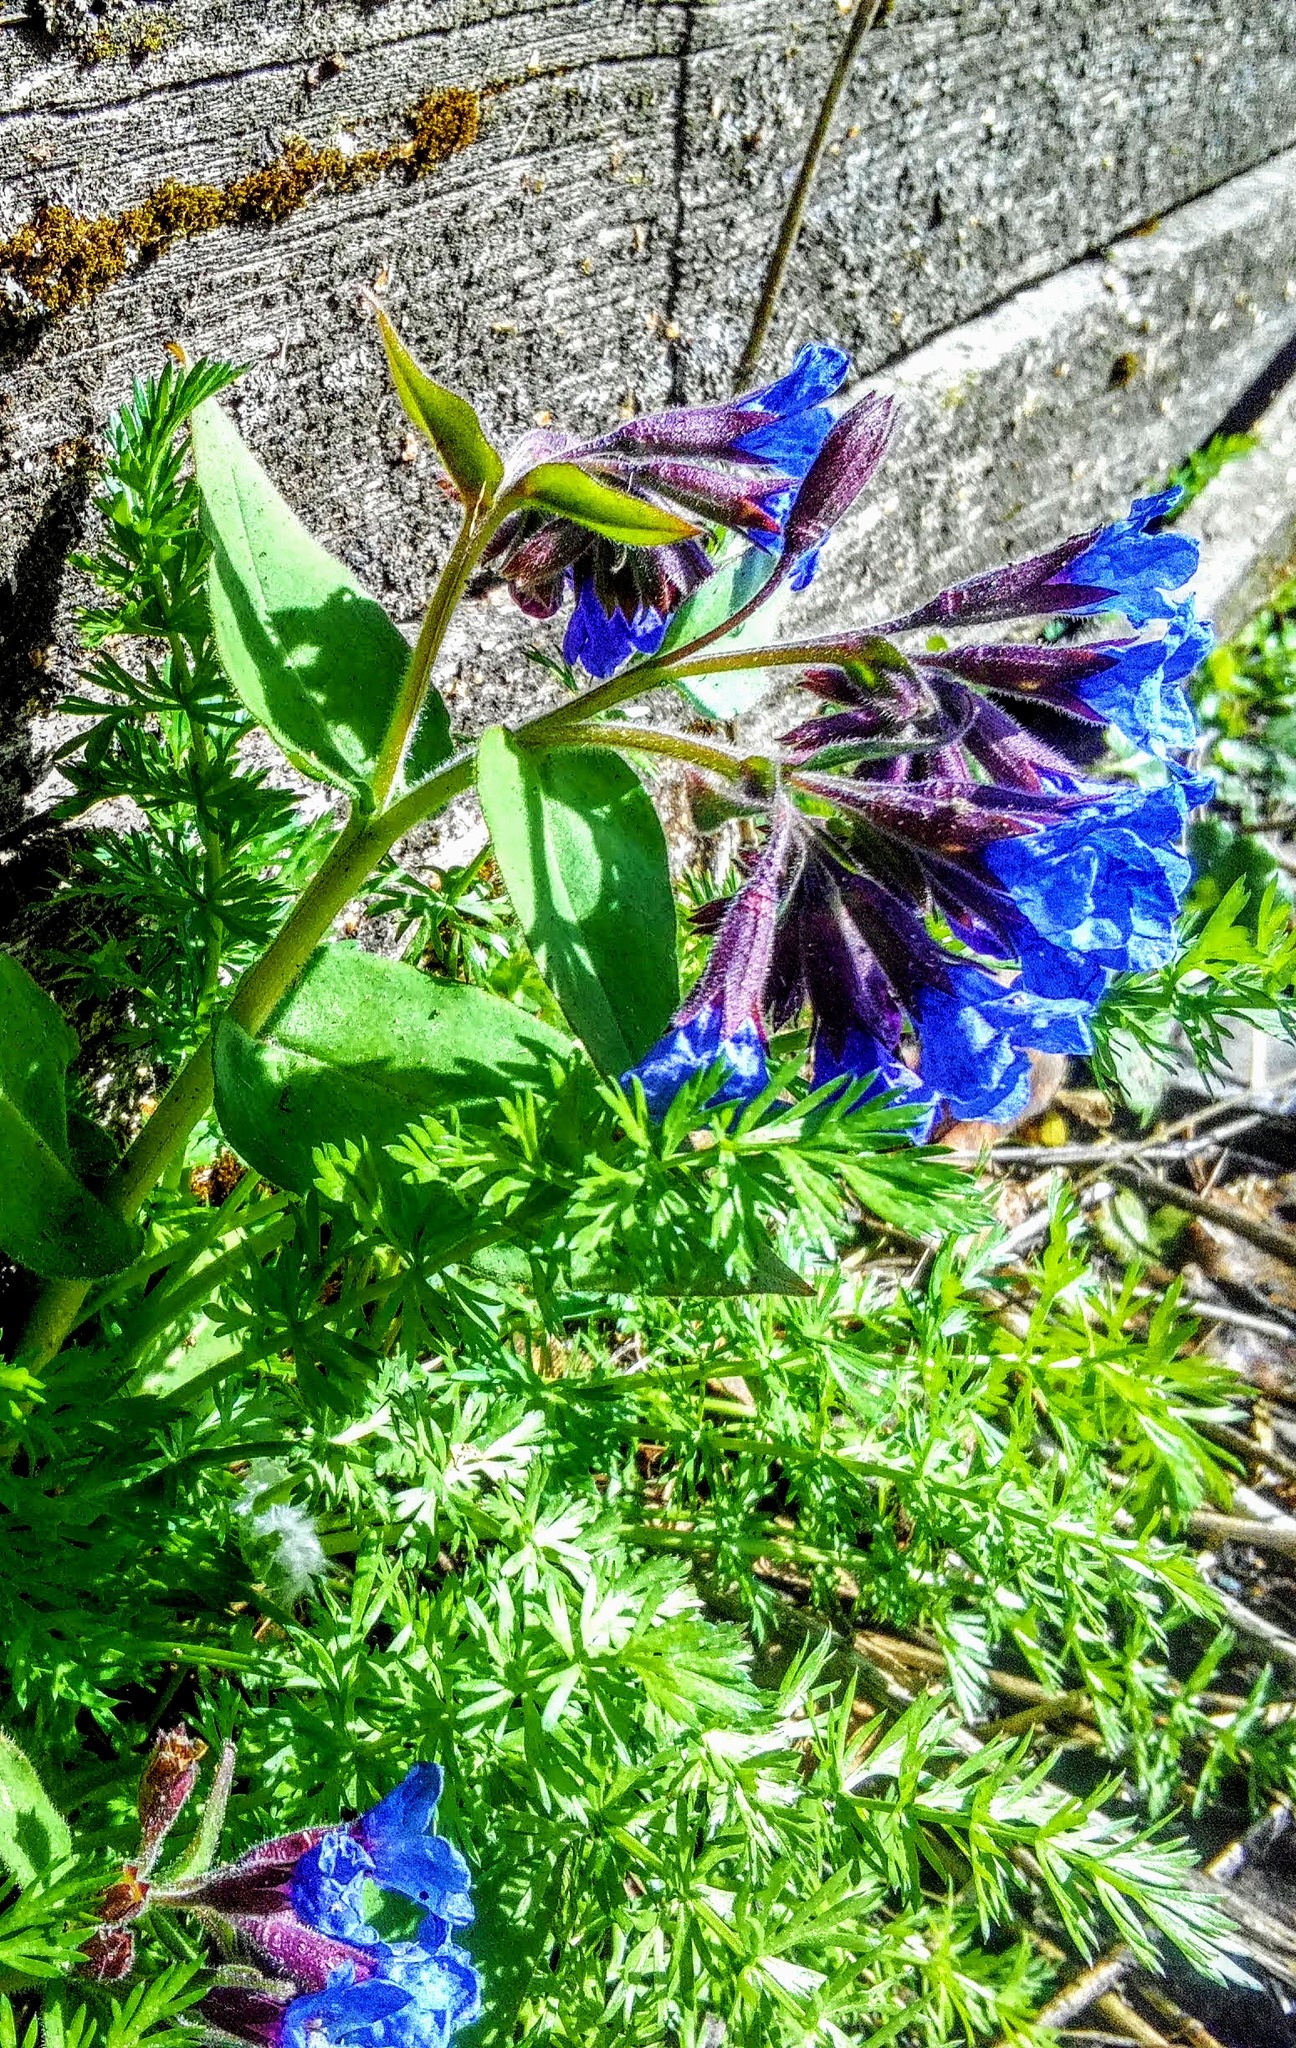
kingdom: Plantae
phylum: Tracheophyta
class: Magnoliopsida
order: Boraginales
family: Boraginaceae
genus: Pulmonaria
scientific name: Pulmonaria mollis
